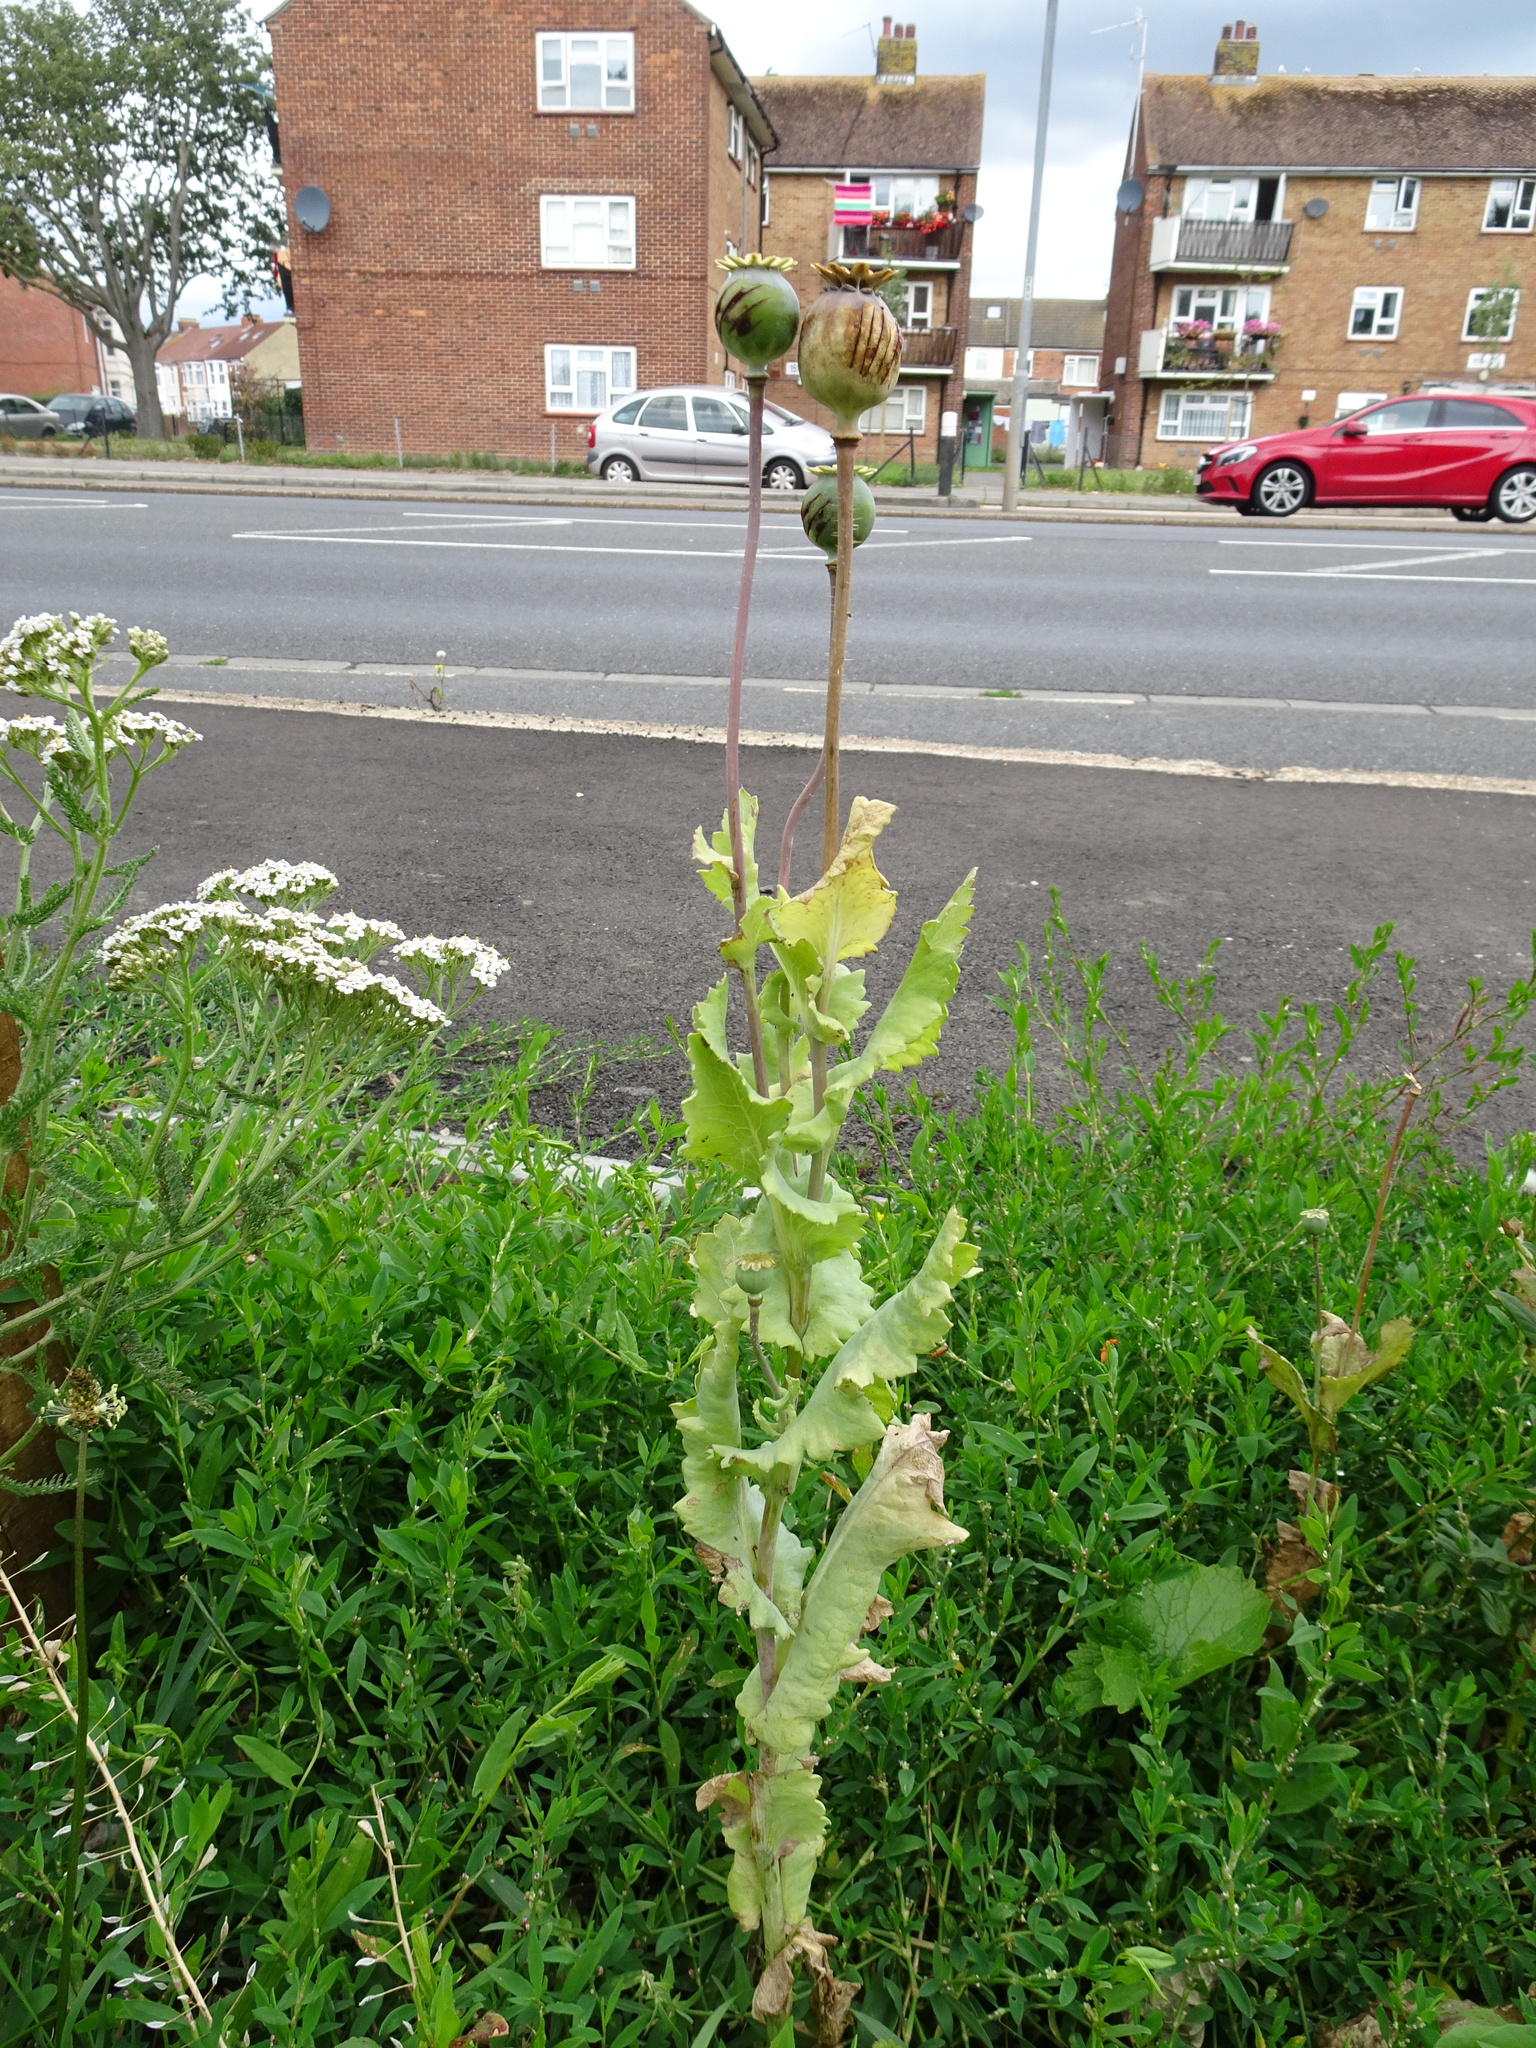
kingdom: Plantae
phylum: Tracheophyta
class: Magnoliopsida
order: Ranunculales
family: Papaveraceae
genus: Papaver
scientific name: Papaver somniferum
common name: Opium poppy
